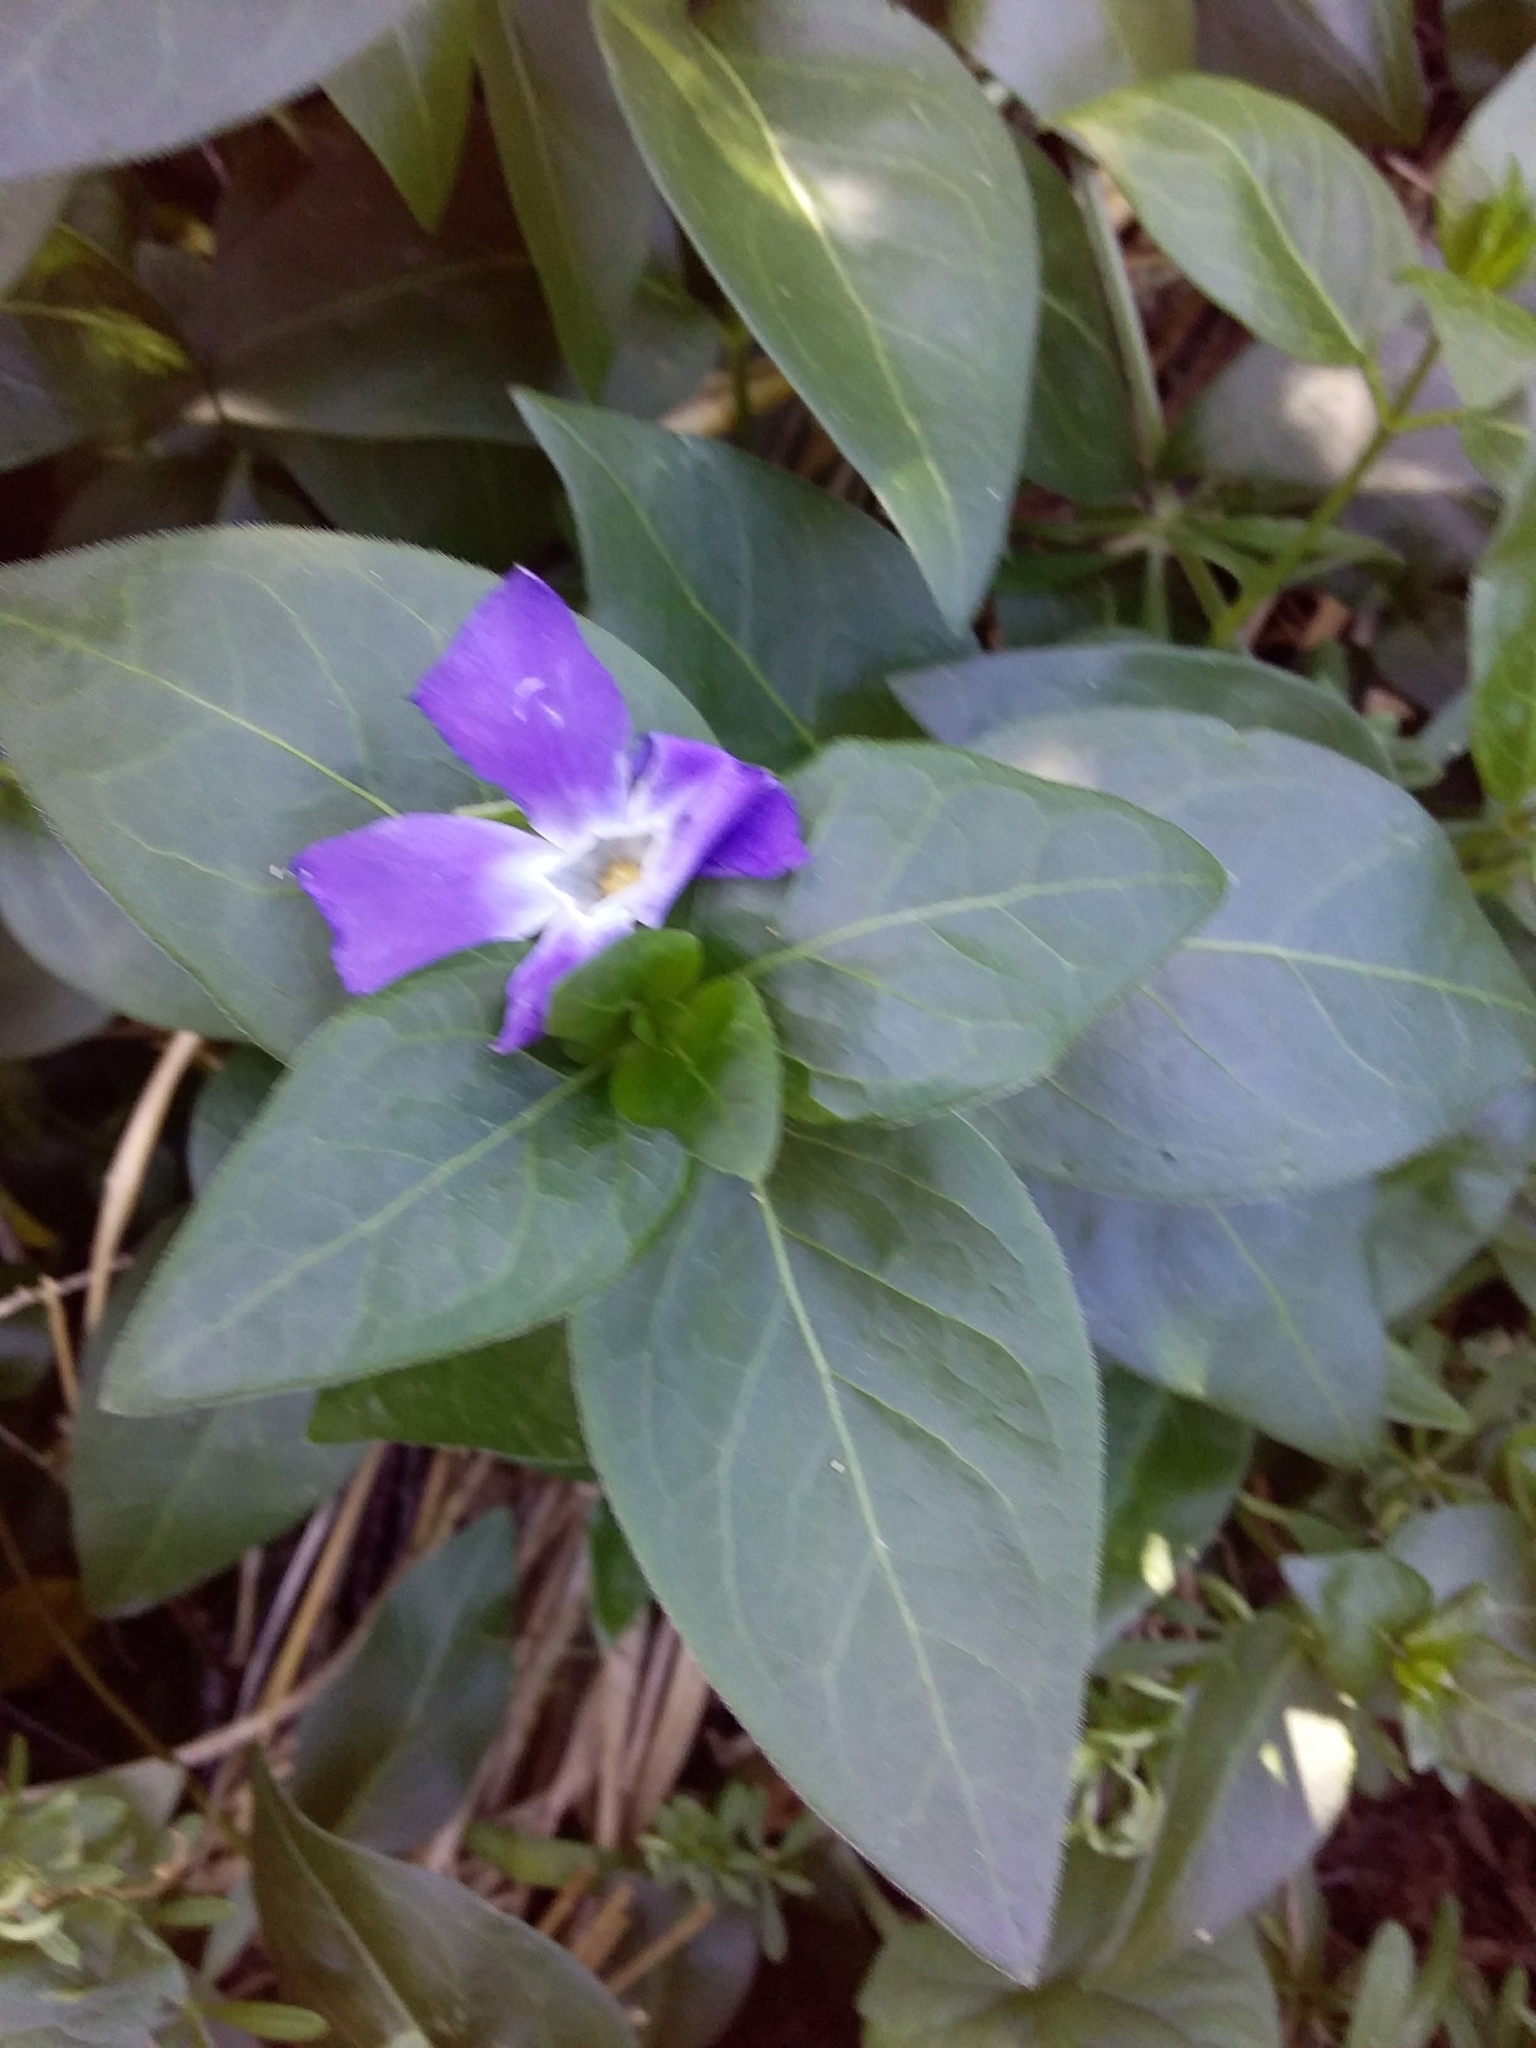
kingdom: Plantae
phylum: Tracheophyta
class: Magnoliopsida
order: Gentianales
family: Apocynaceae
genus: Vinca
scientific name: Vinca major
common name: Greater periwinkle
